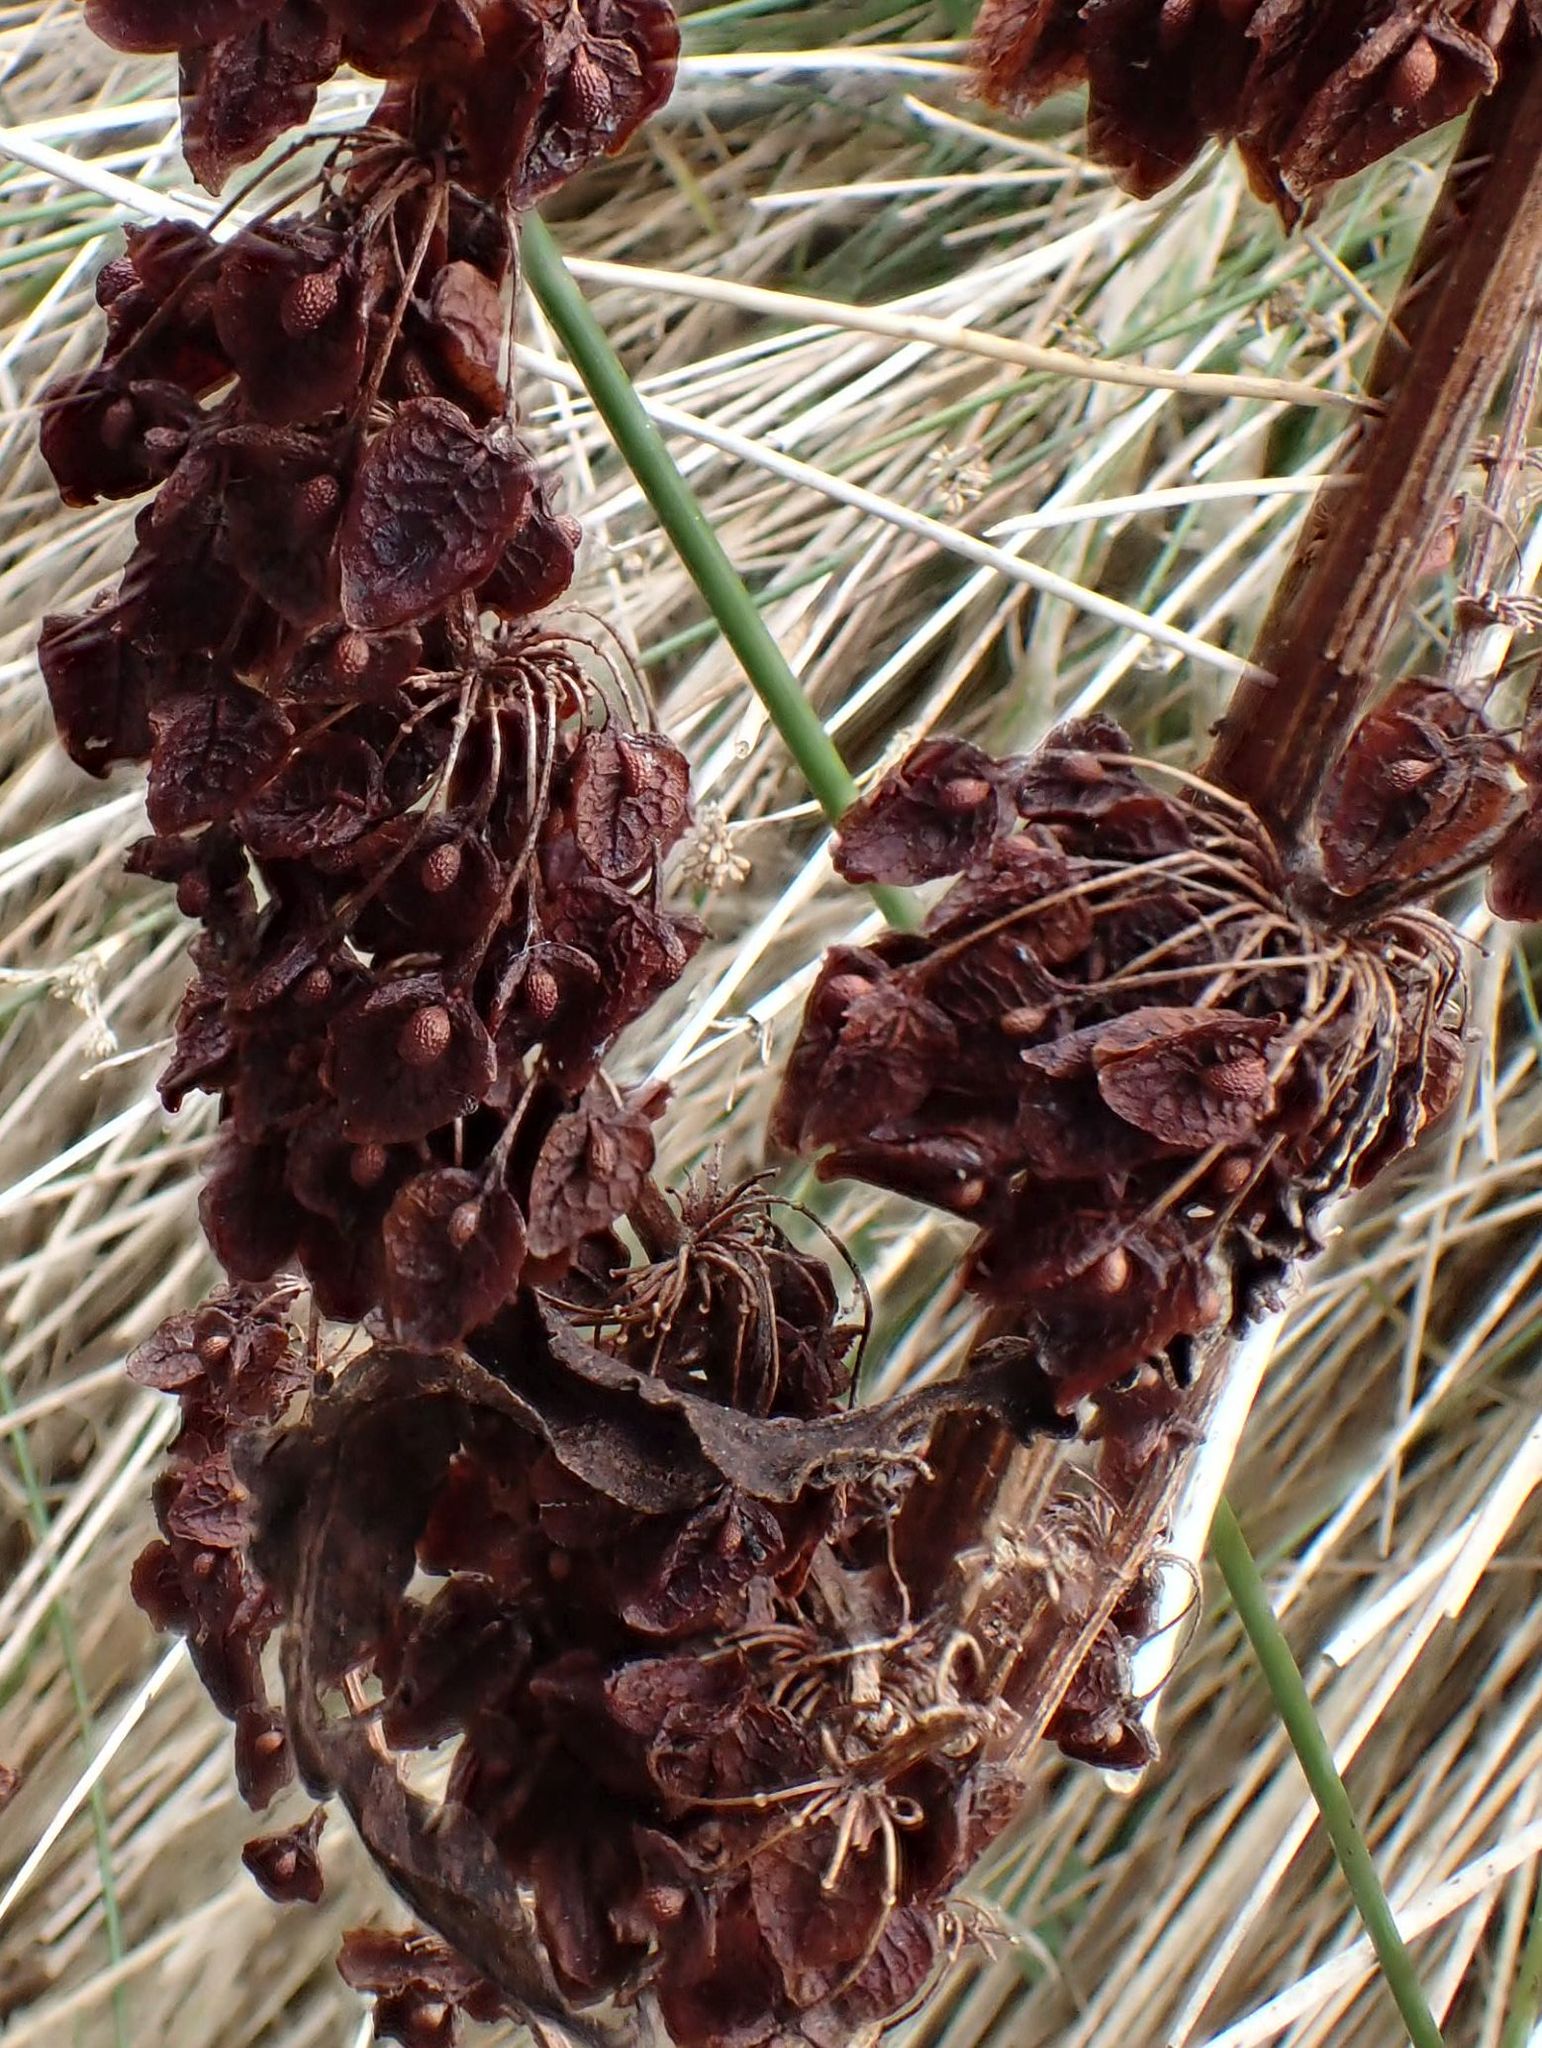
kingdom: Plantae
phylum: Tracheophyta
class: Magnoliopsida
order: Caryophyllales
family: Polygonaceae
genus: Rumex
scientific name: Rumex obtusifolius
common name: Bitter dock
